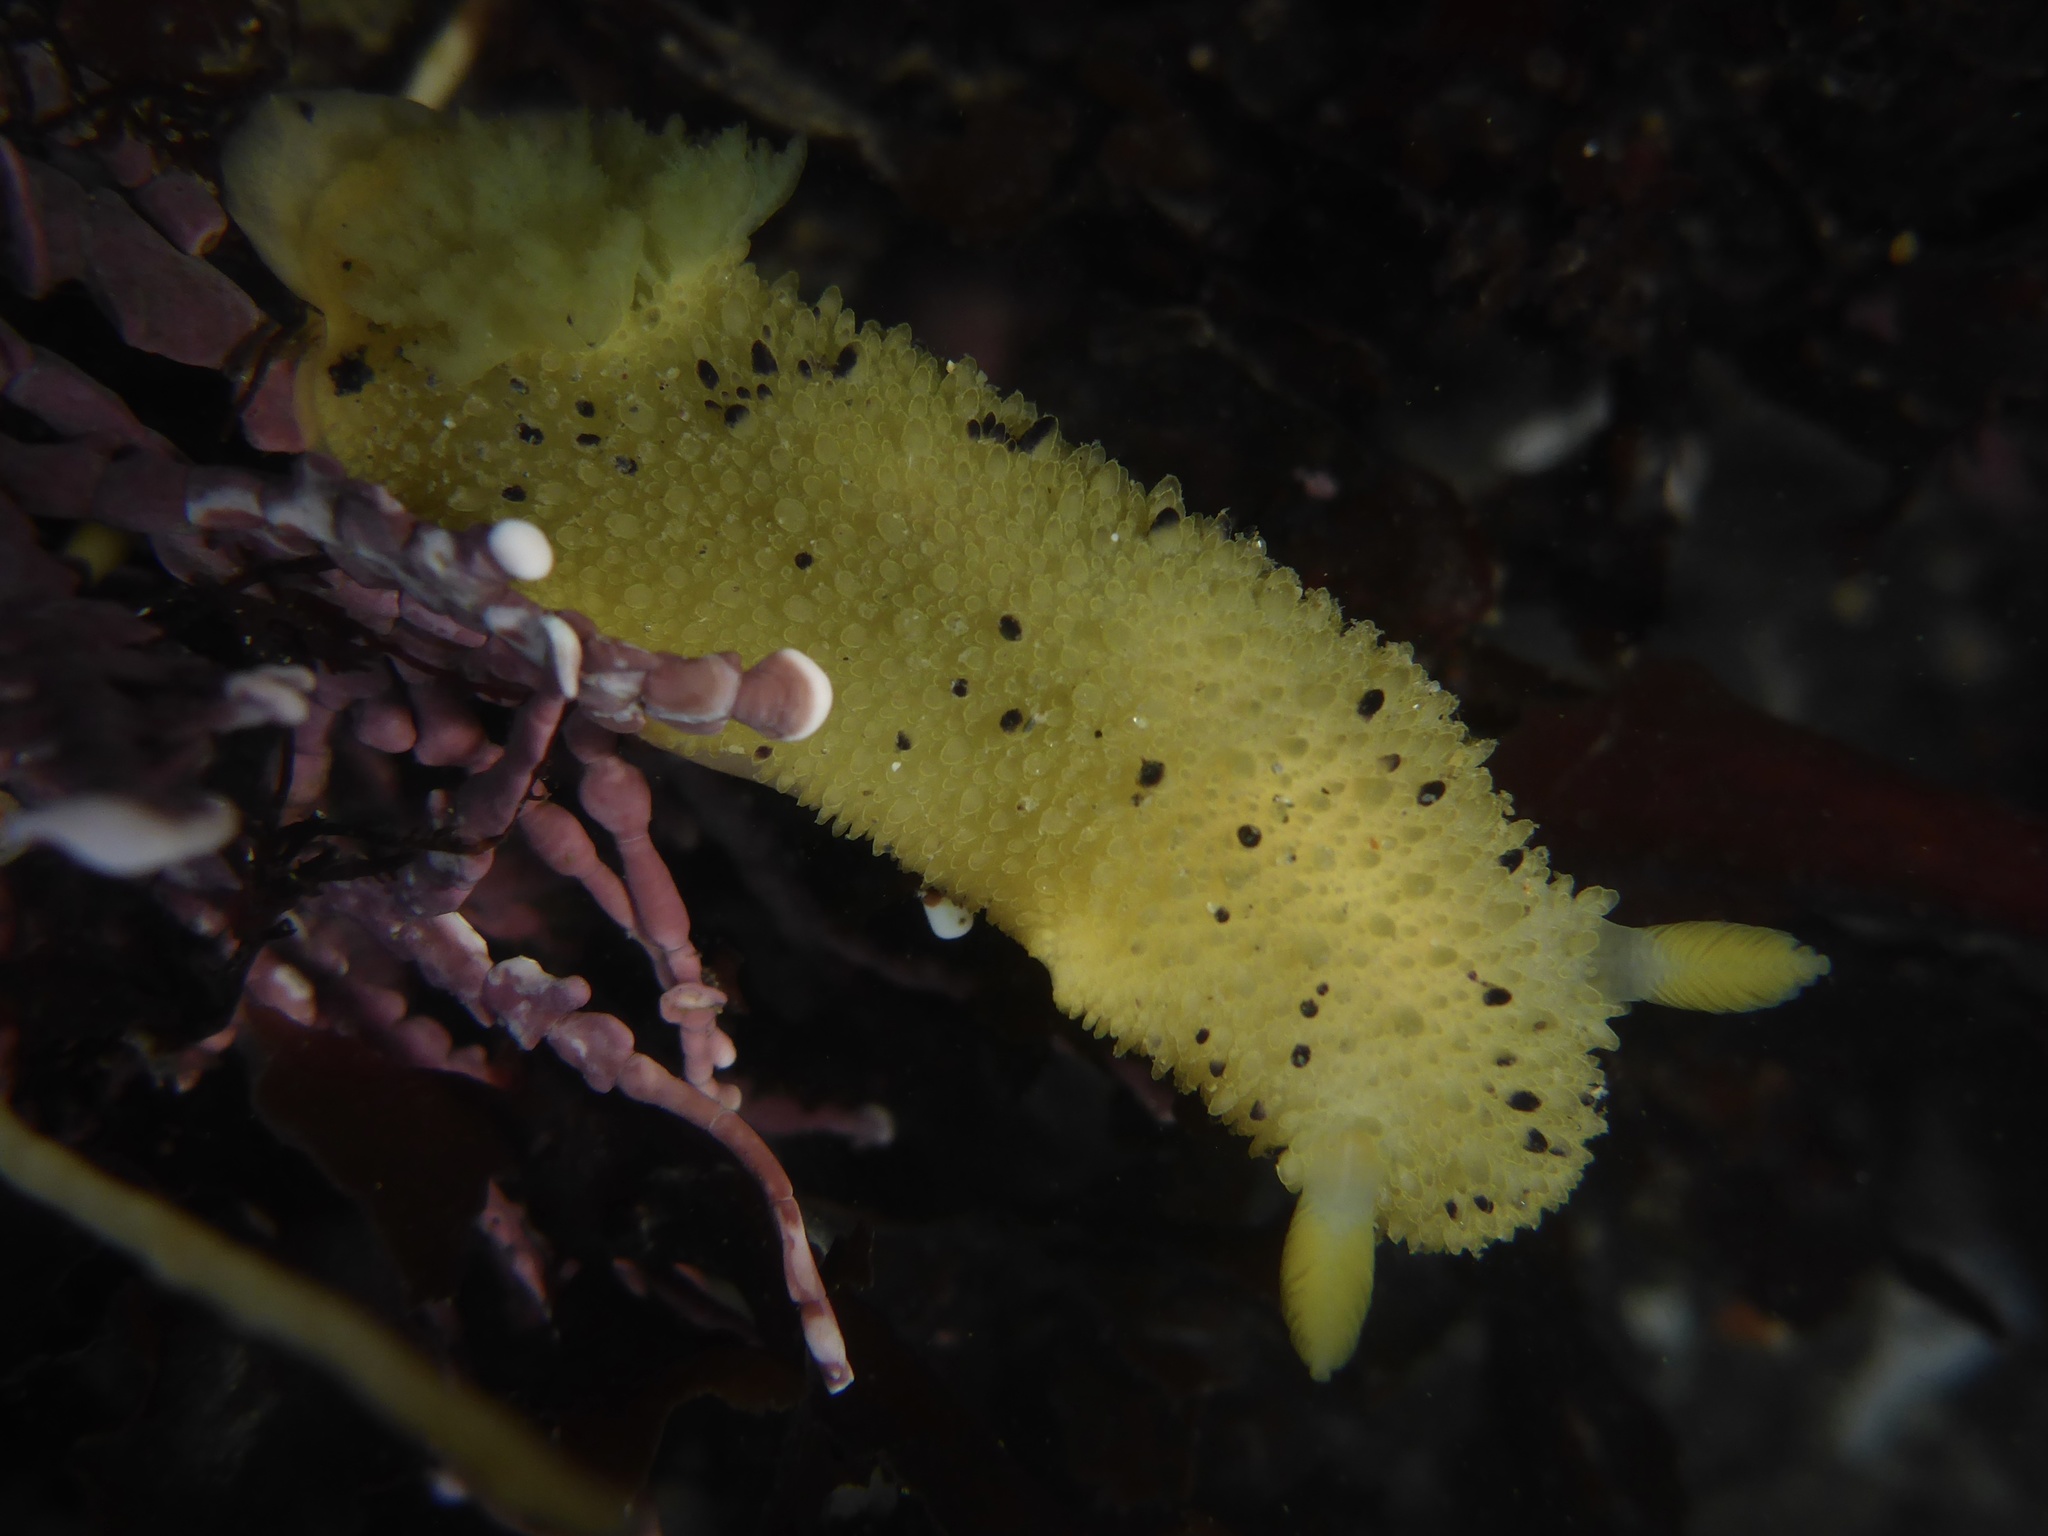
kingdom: Animalia
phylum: Mollusca
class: Gastropoda
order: Nudibranchia
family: Dorididae
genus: Doris
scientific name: Doris montereyensis
